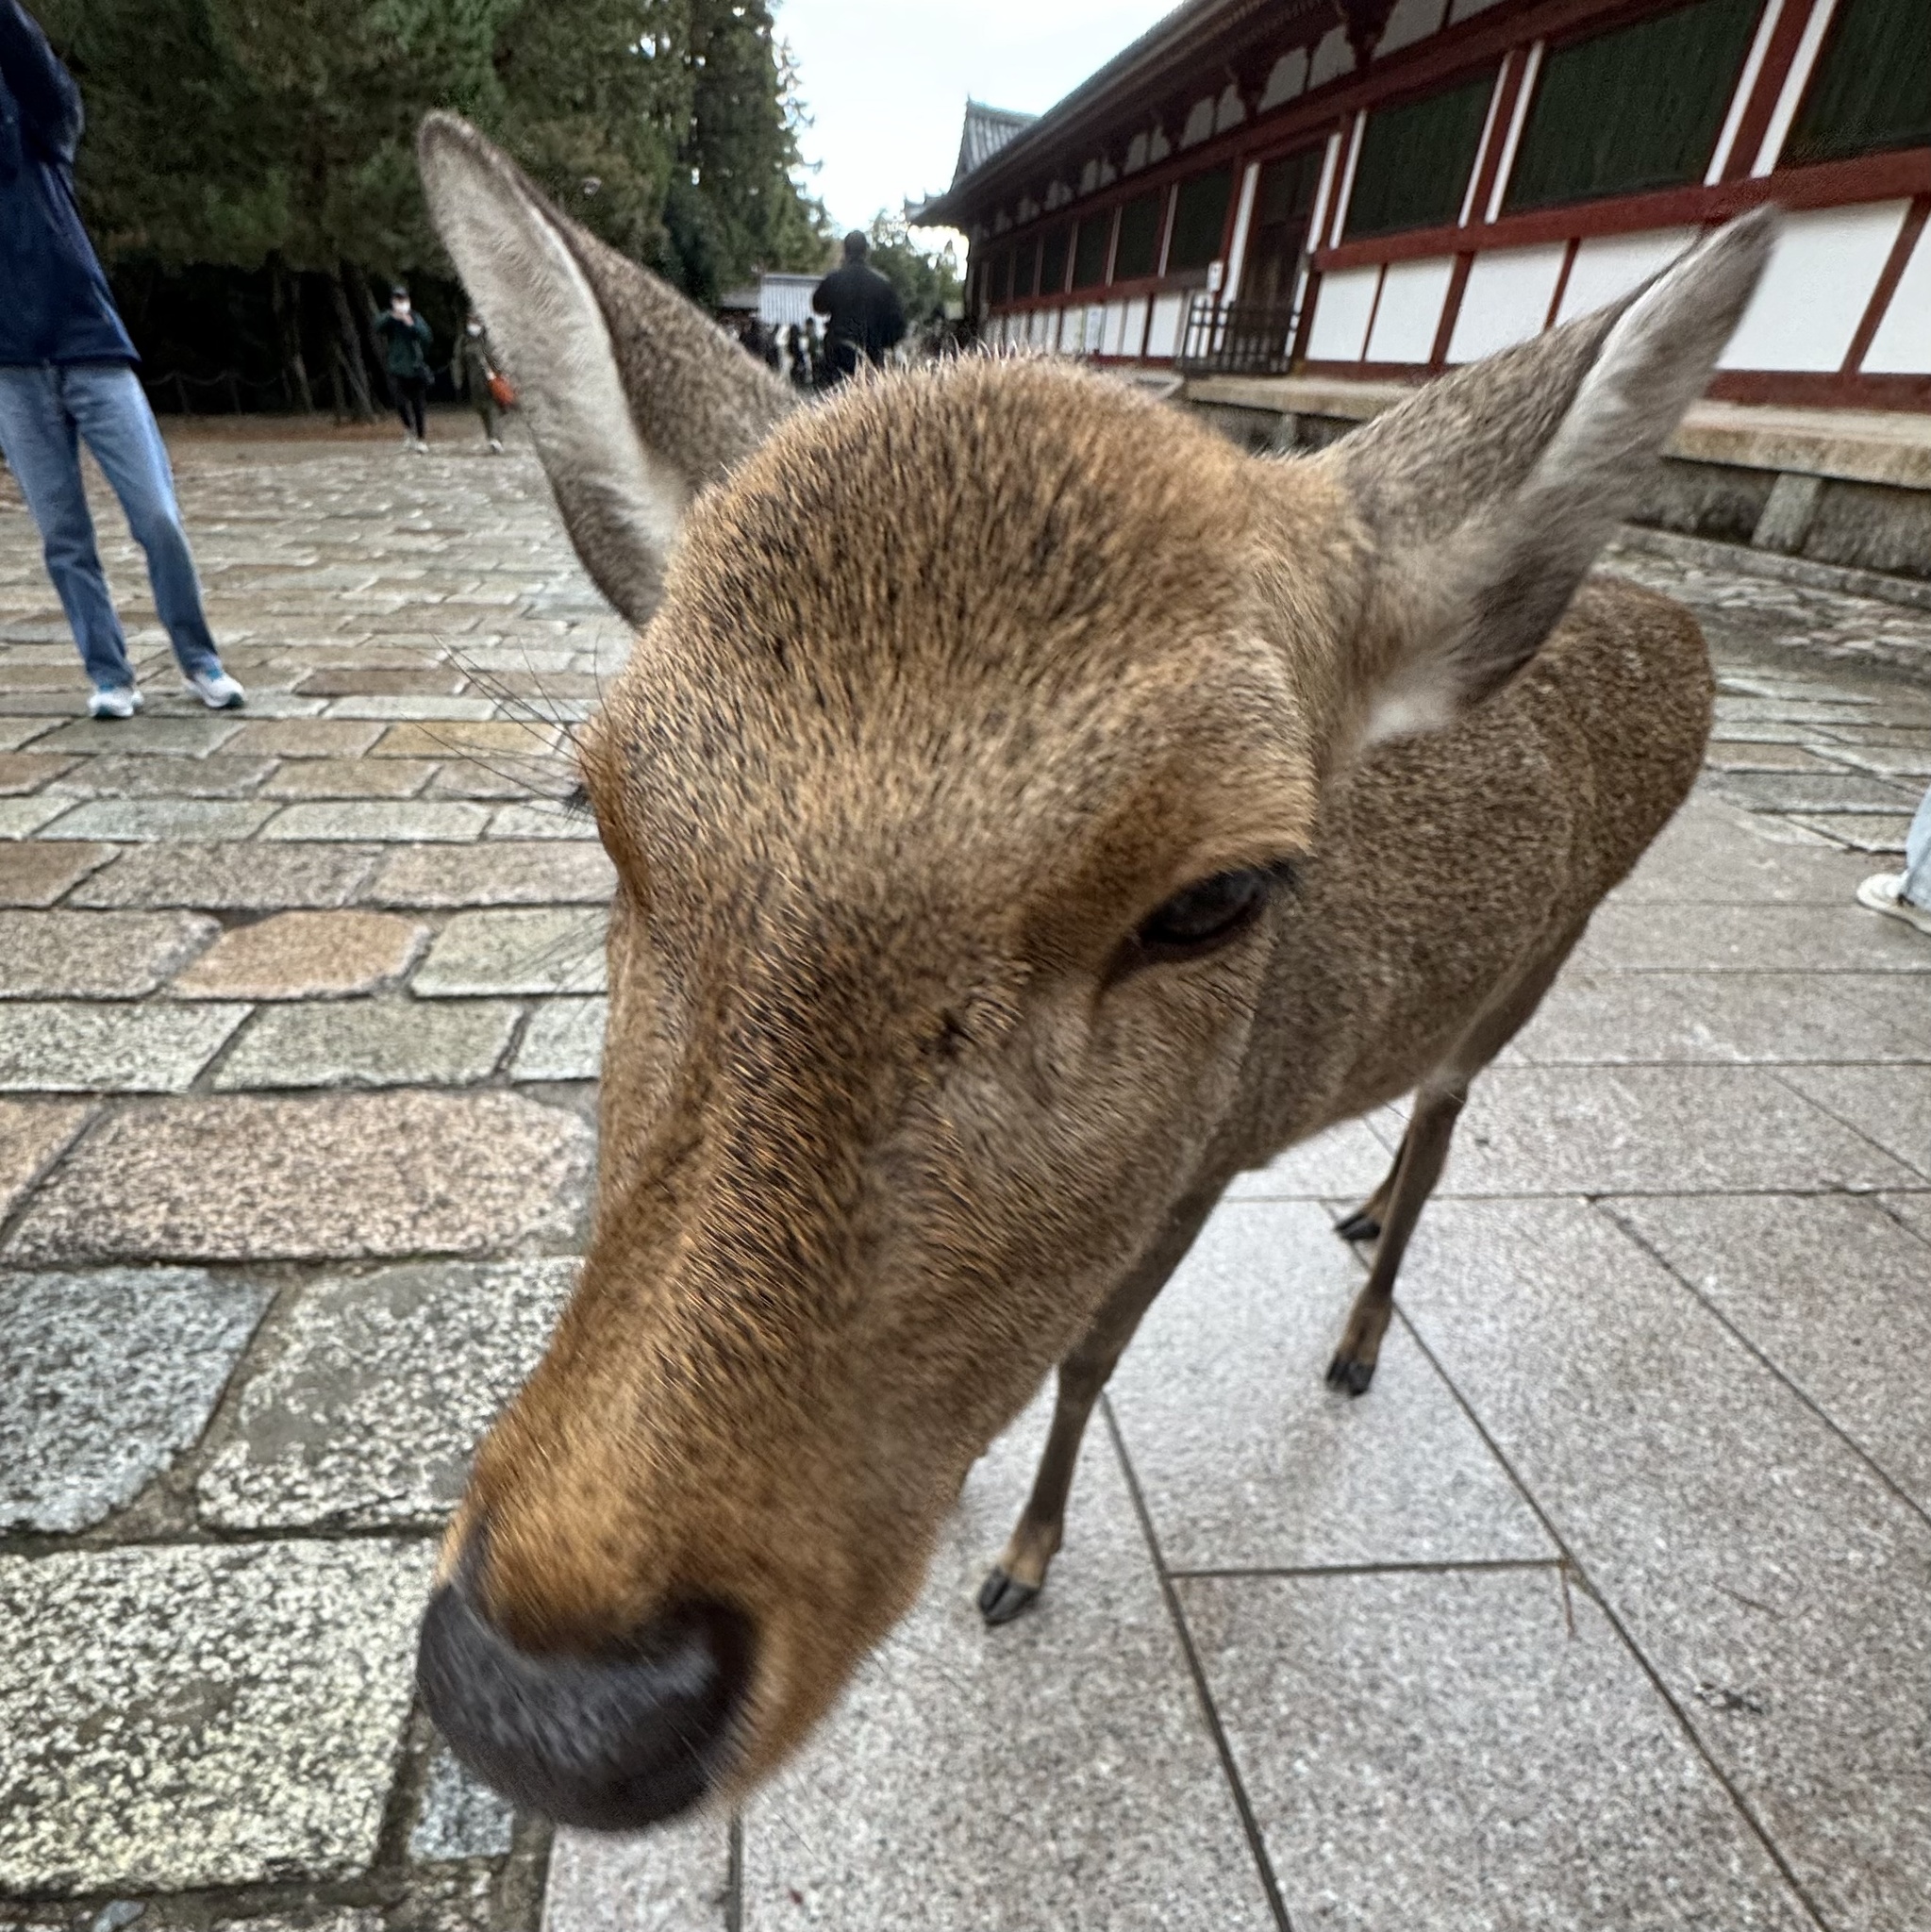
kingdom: Animalia
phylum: Chordata
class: Mammalia
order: Artiodactyla
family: Cervidae
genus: Cervus
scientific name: Cervus nippon
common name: Sika deer
